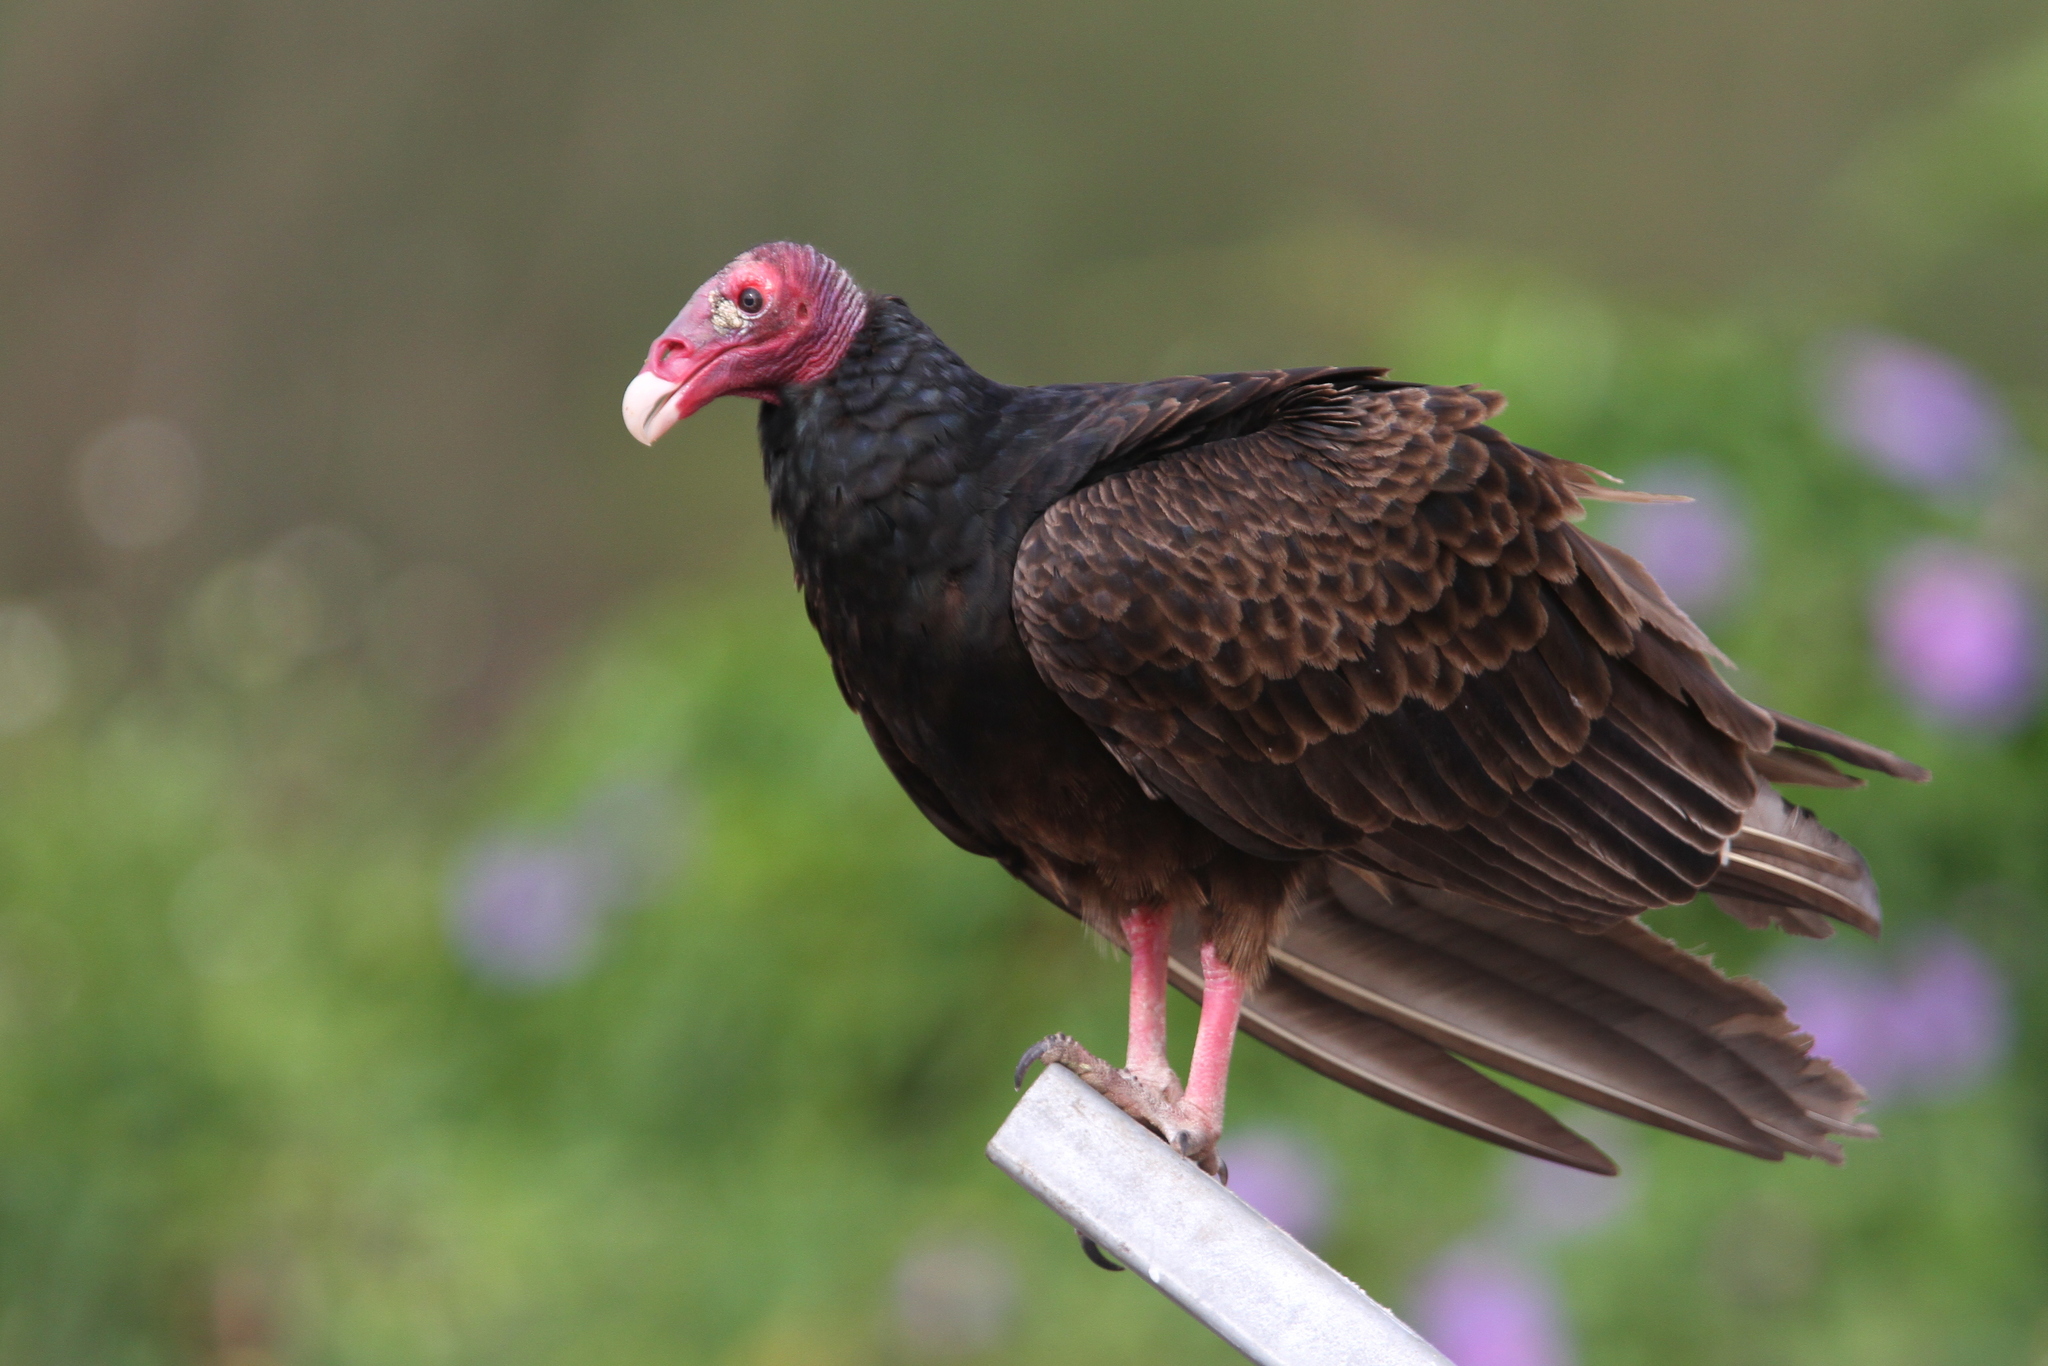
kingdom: Animalia
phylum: Chordata
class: Aves
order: Accipitriformes
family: Cathartidae
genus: Cathartes
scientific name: Cathartes aura
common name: Turkey vulture
